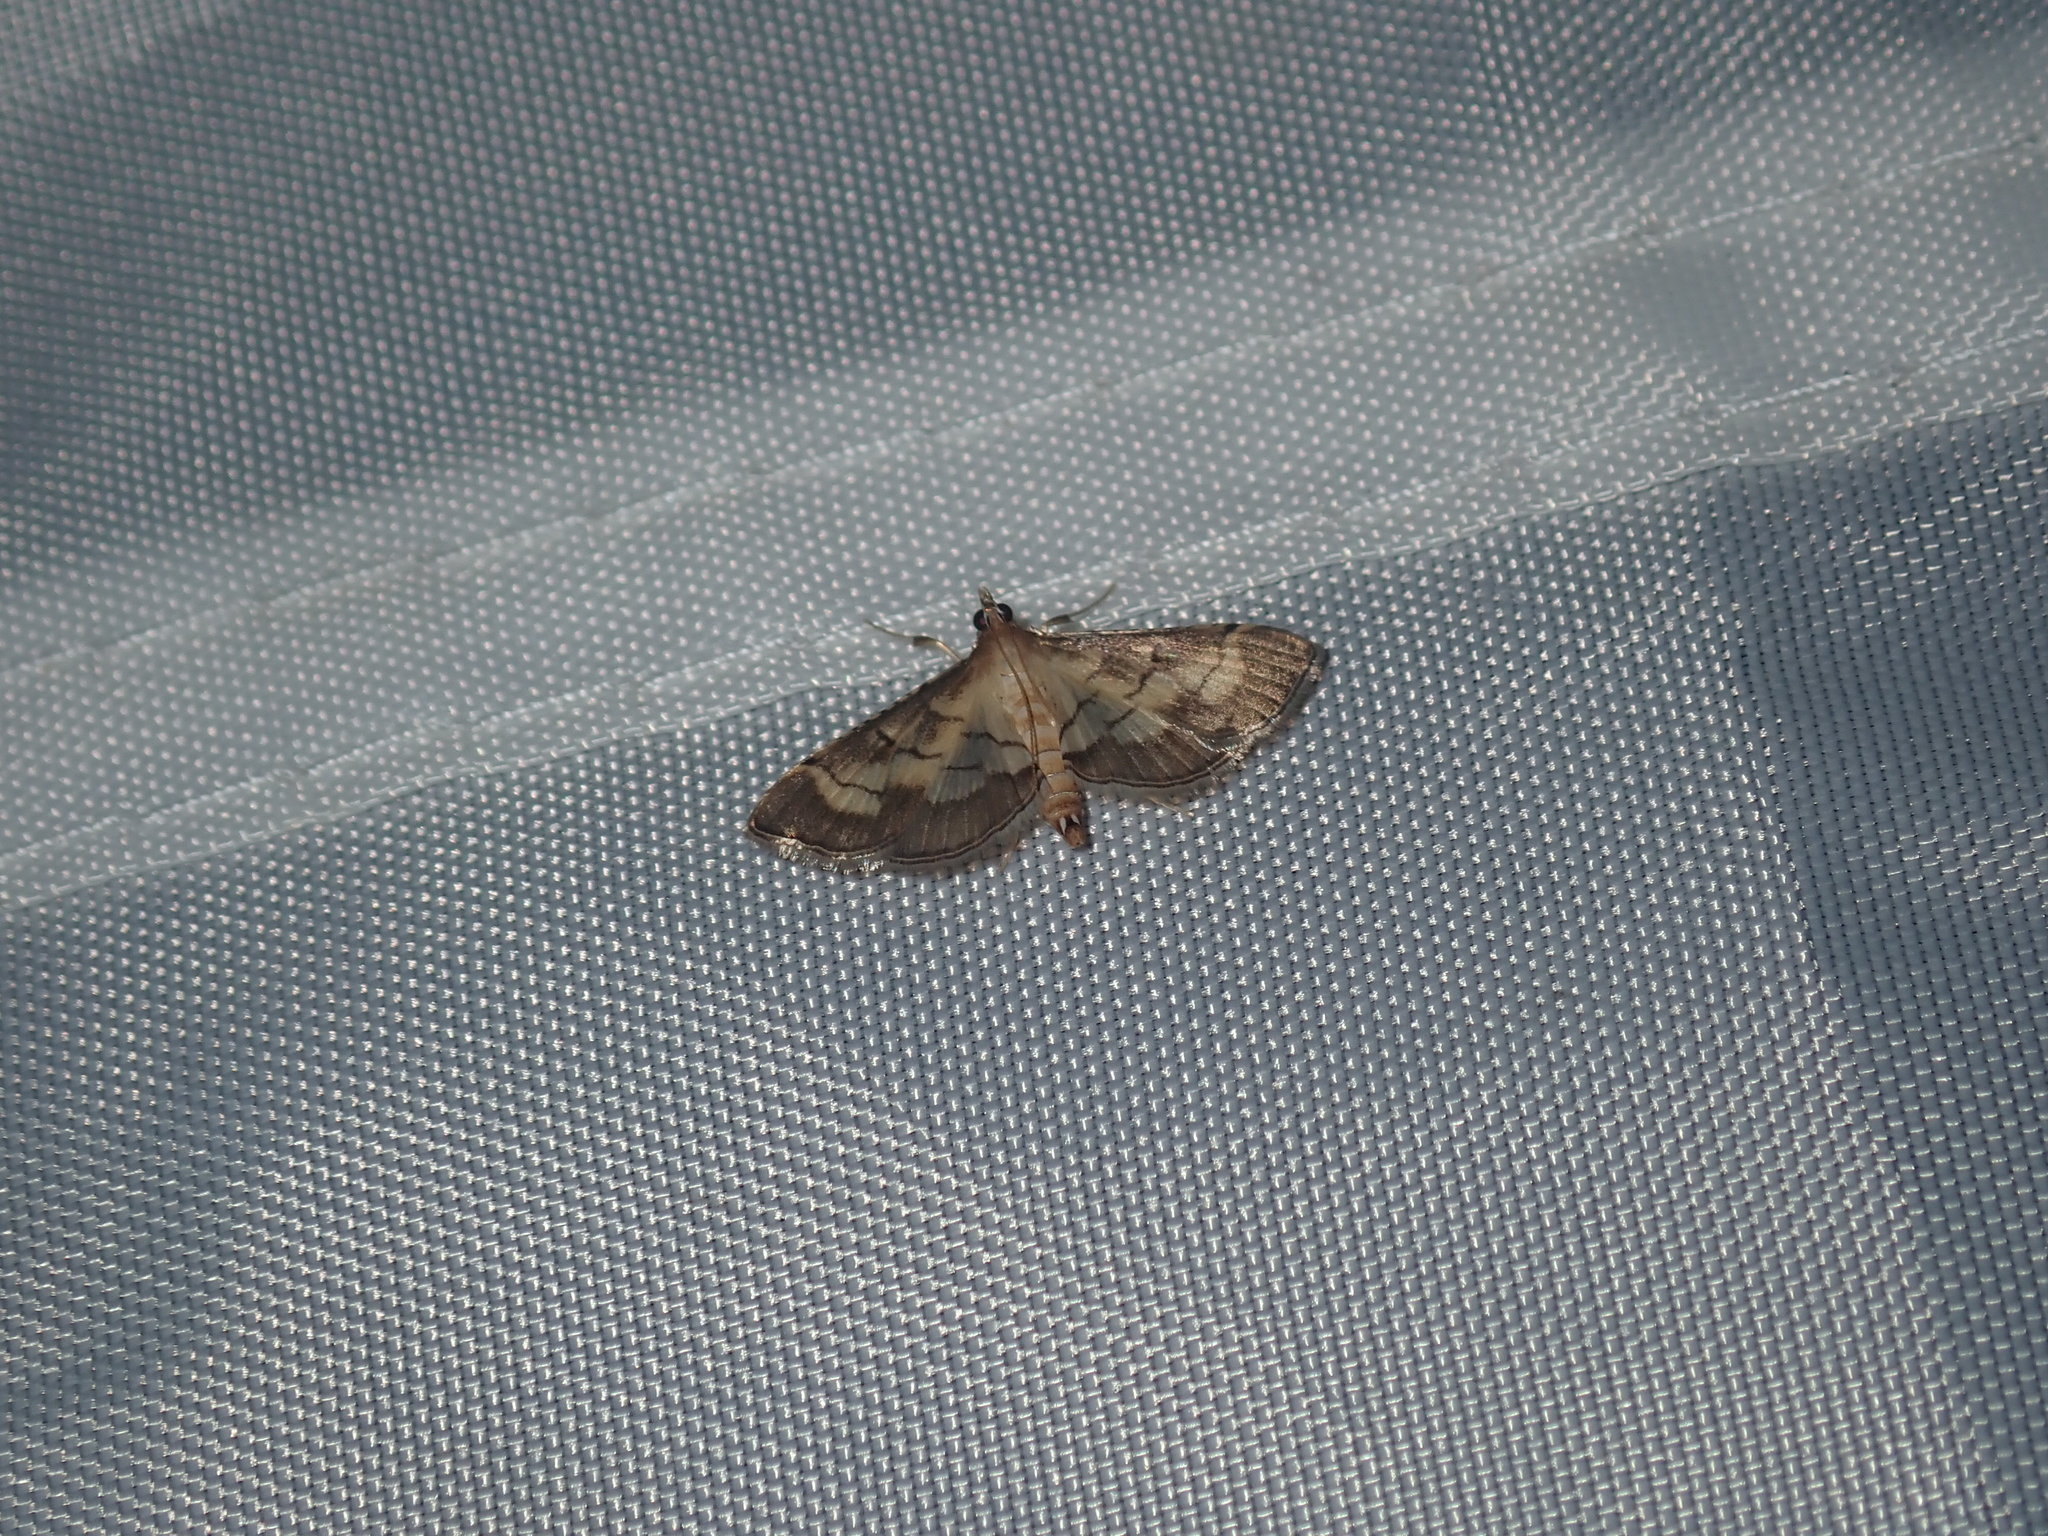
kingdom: Animalia
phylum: Arthropoda
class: Insecta
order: Lepidoptera
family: Crambidae
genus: Cnaphalocrocis
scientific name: Cnaphalocrocis poeyalis
